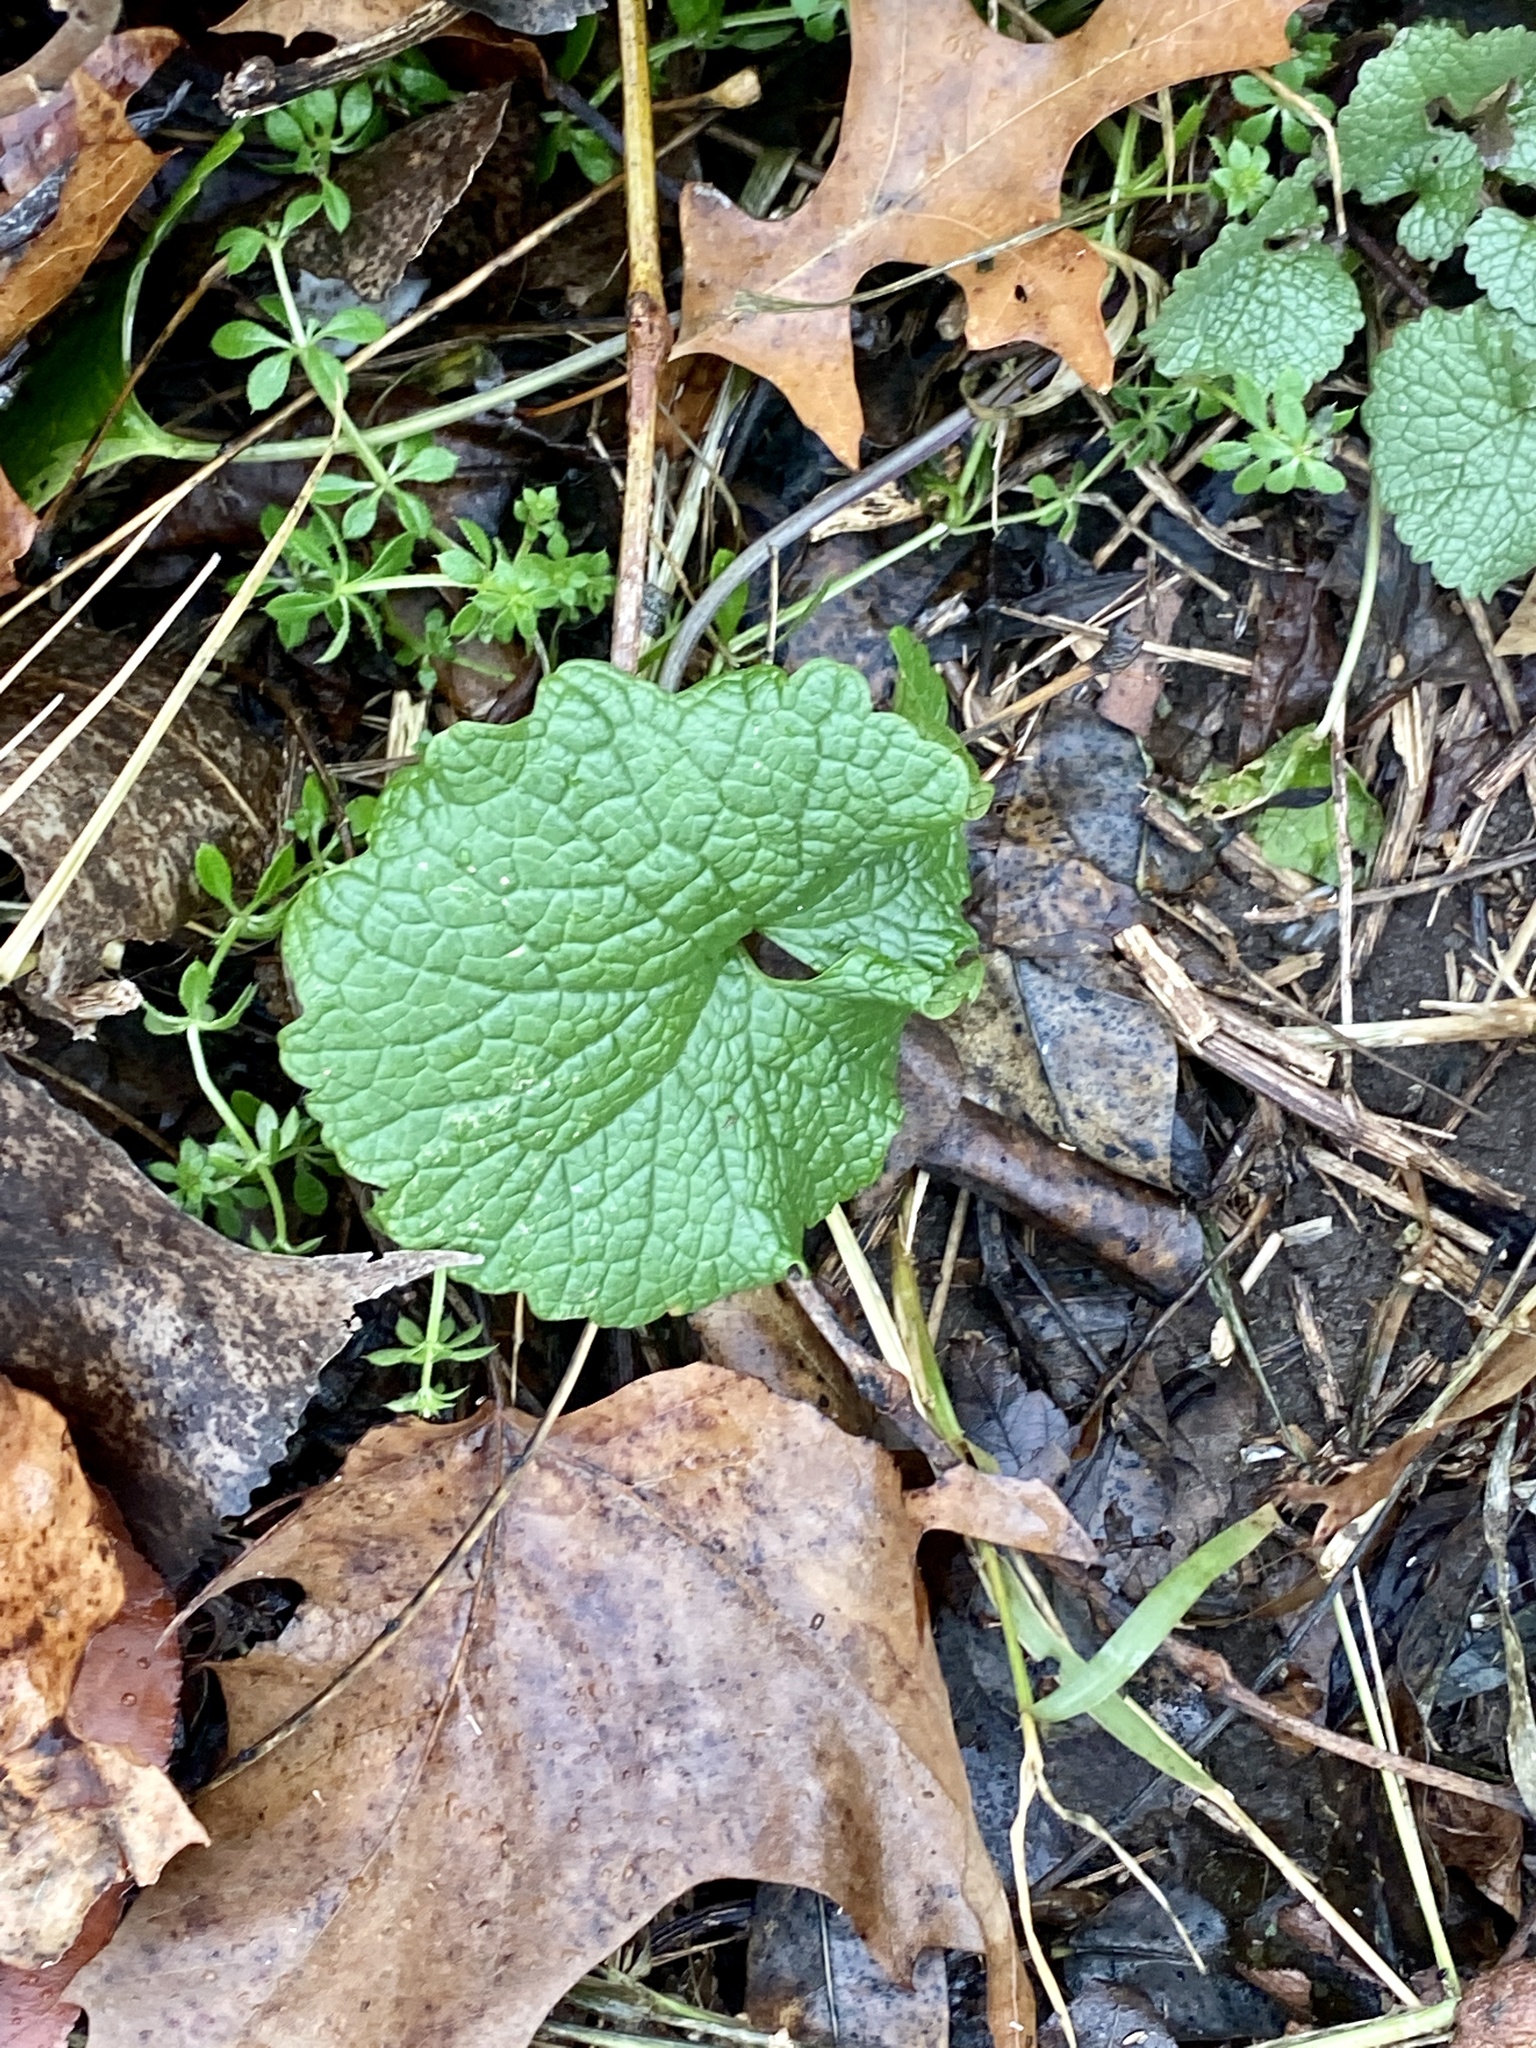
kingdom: Plantae
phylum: Tracheophyta
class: Magnoliopsida
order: Brassicales
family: Brassicaceae
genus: Alliaria
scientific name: Alliaria petiolata
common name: Garlic mustard
